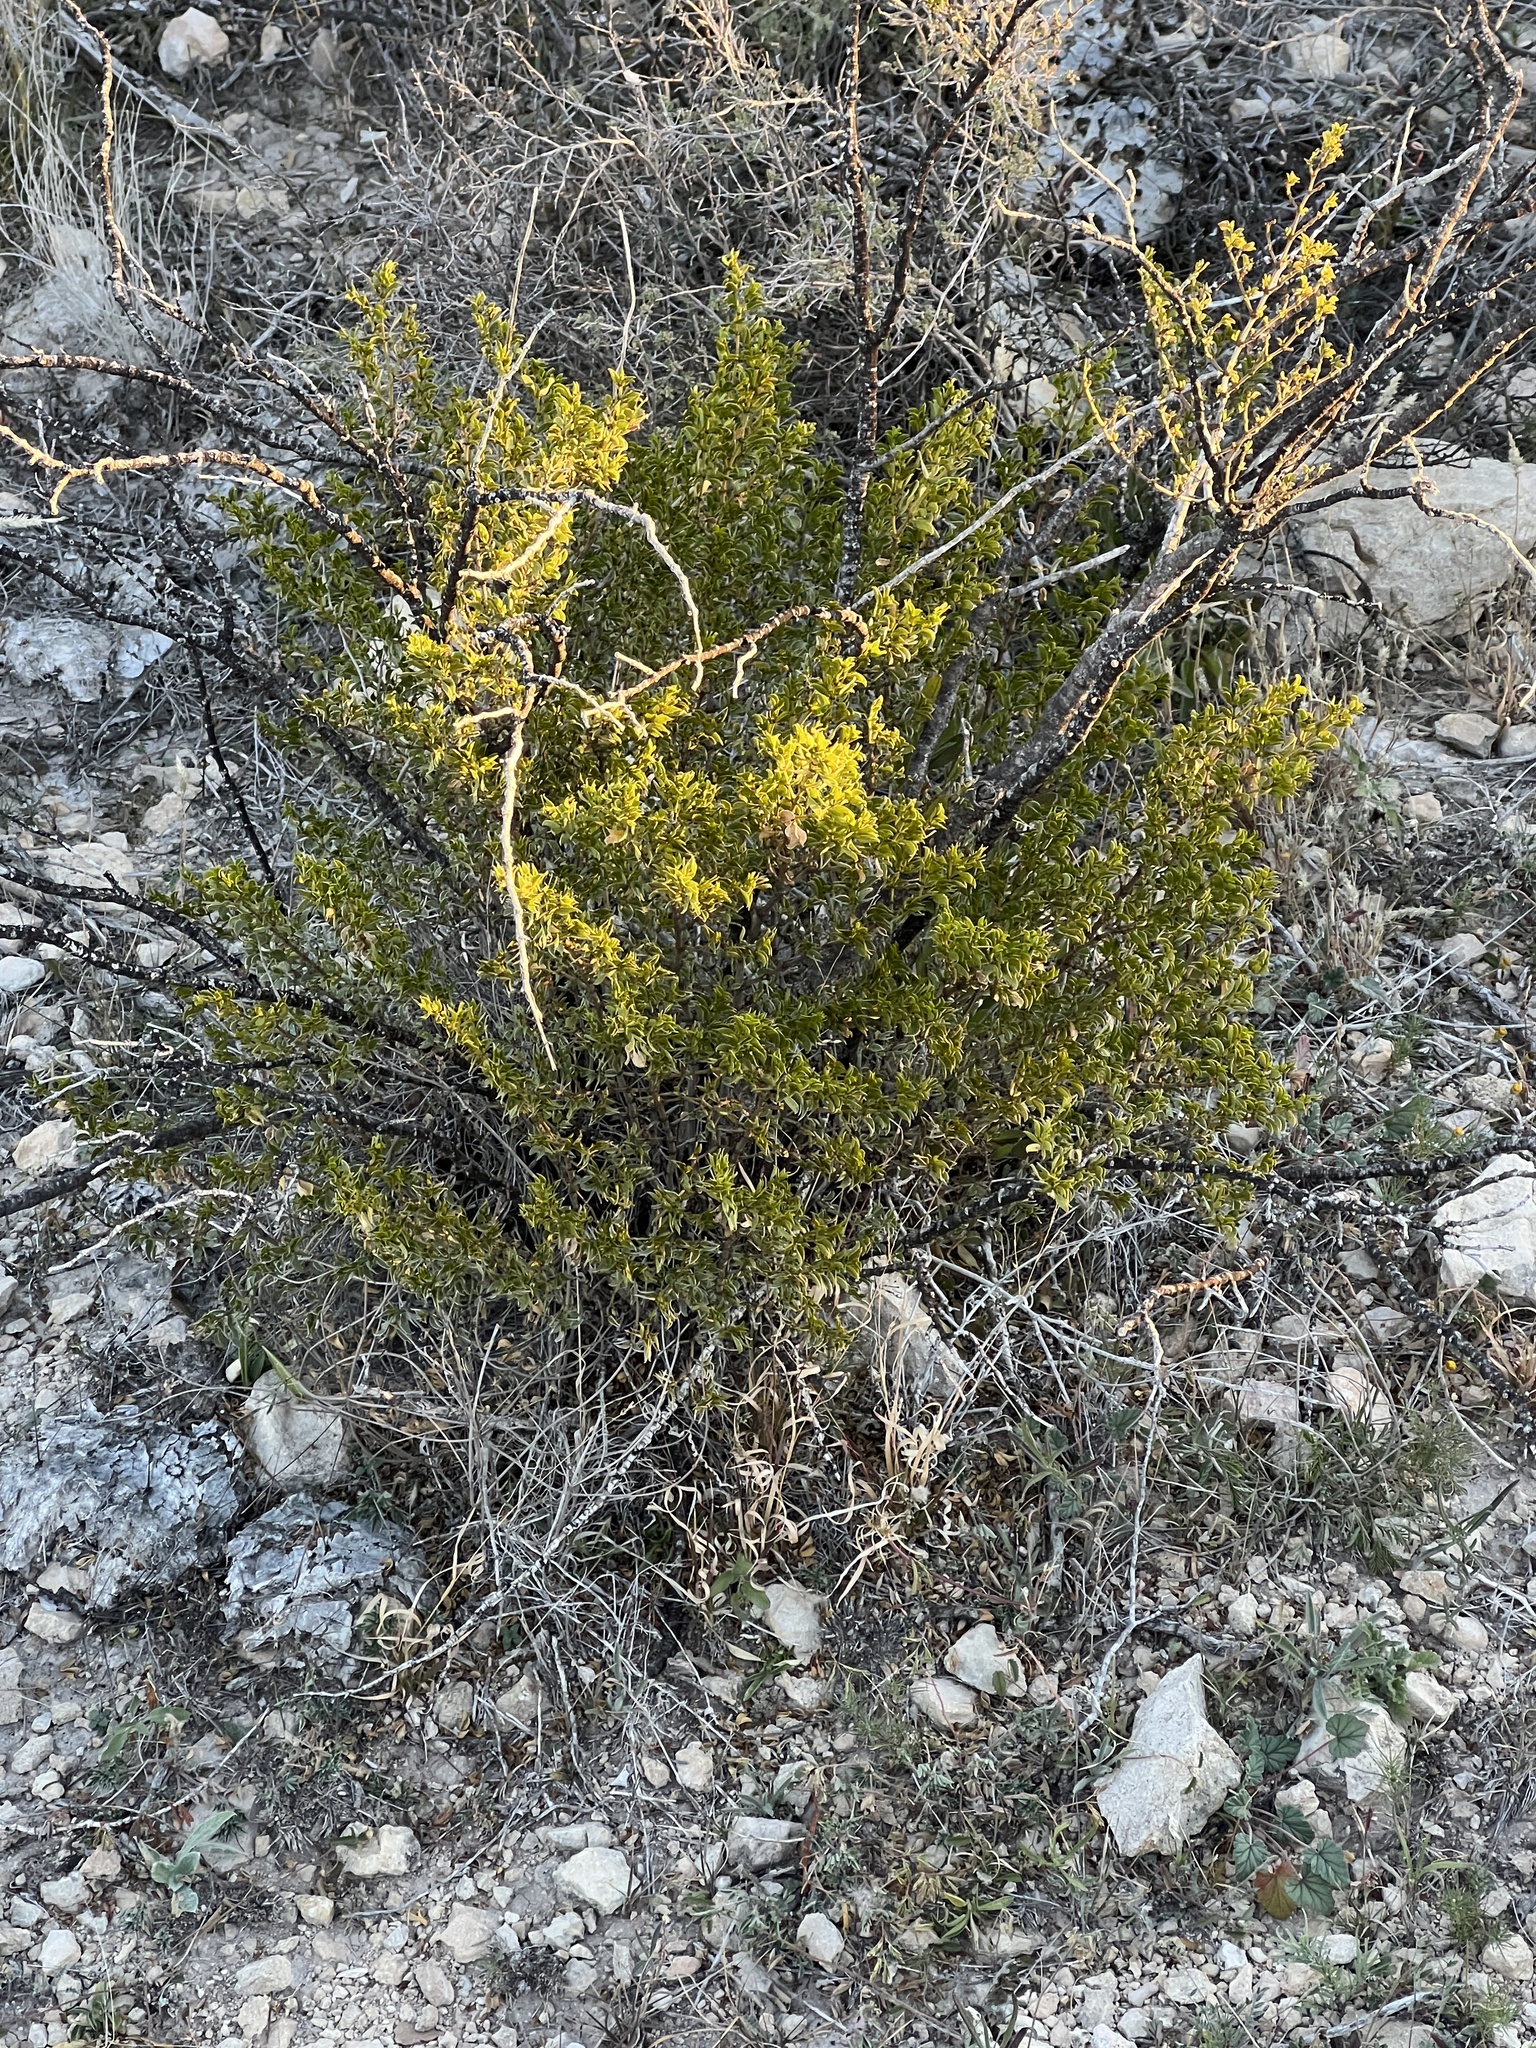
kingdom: Plantae
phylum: Tracheophyta
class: Magnoliopsida
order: Zygophyllales
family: Zygophyllaceae
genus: Larrea
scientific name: Larrea tridentata
